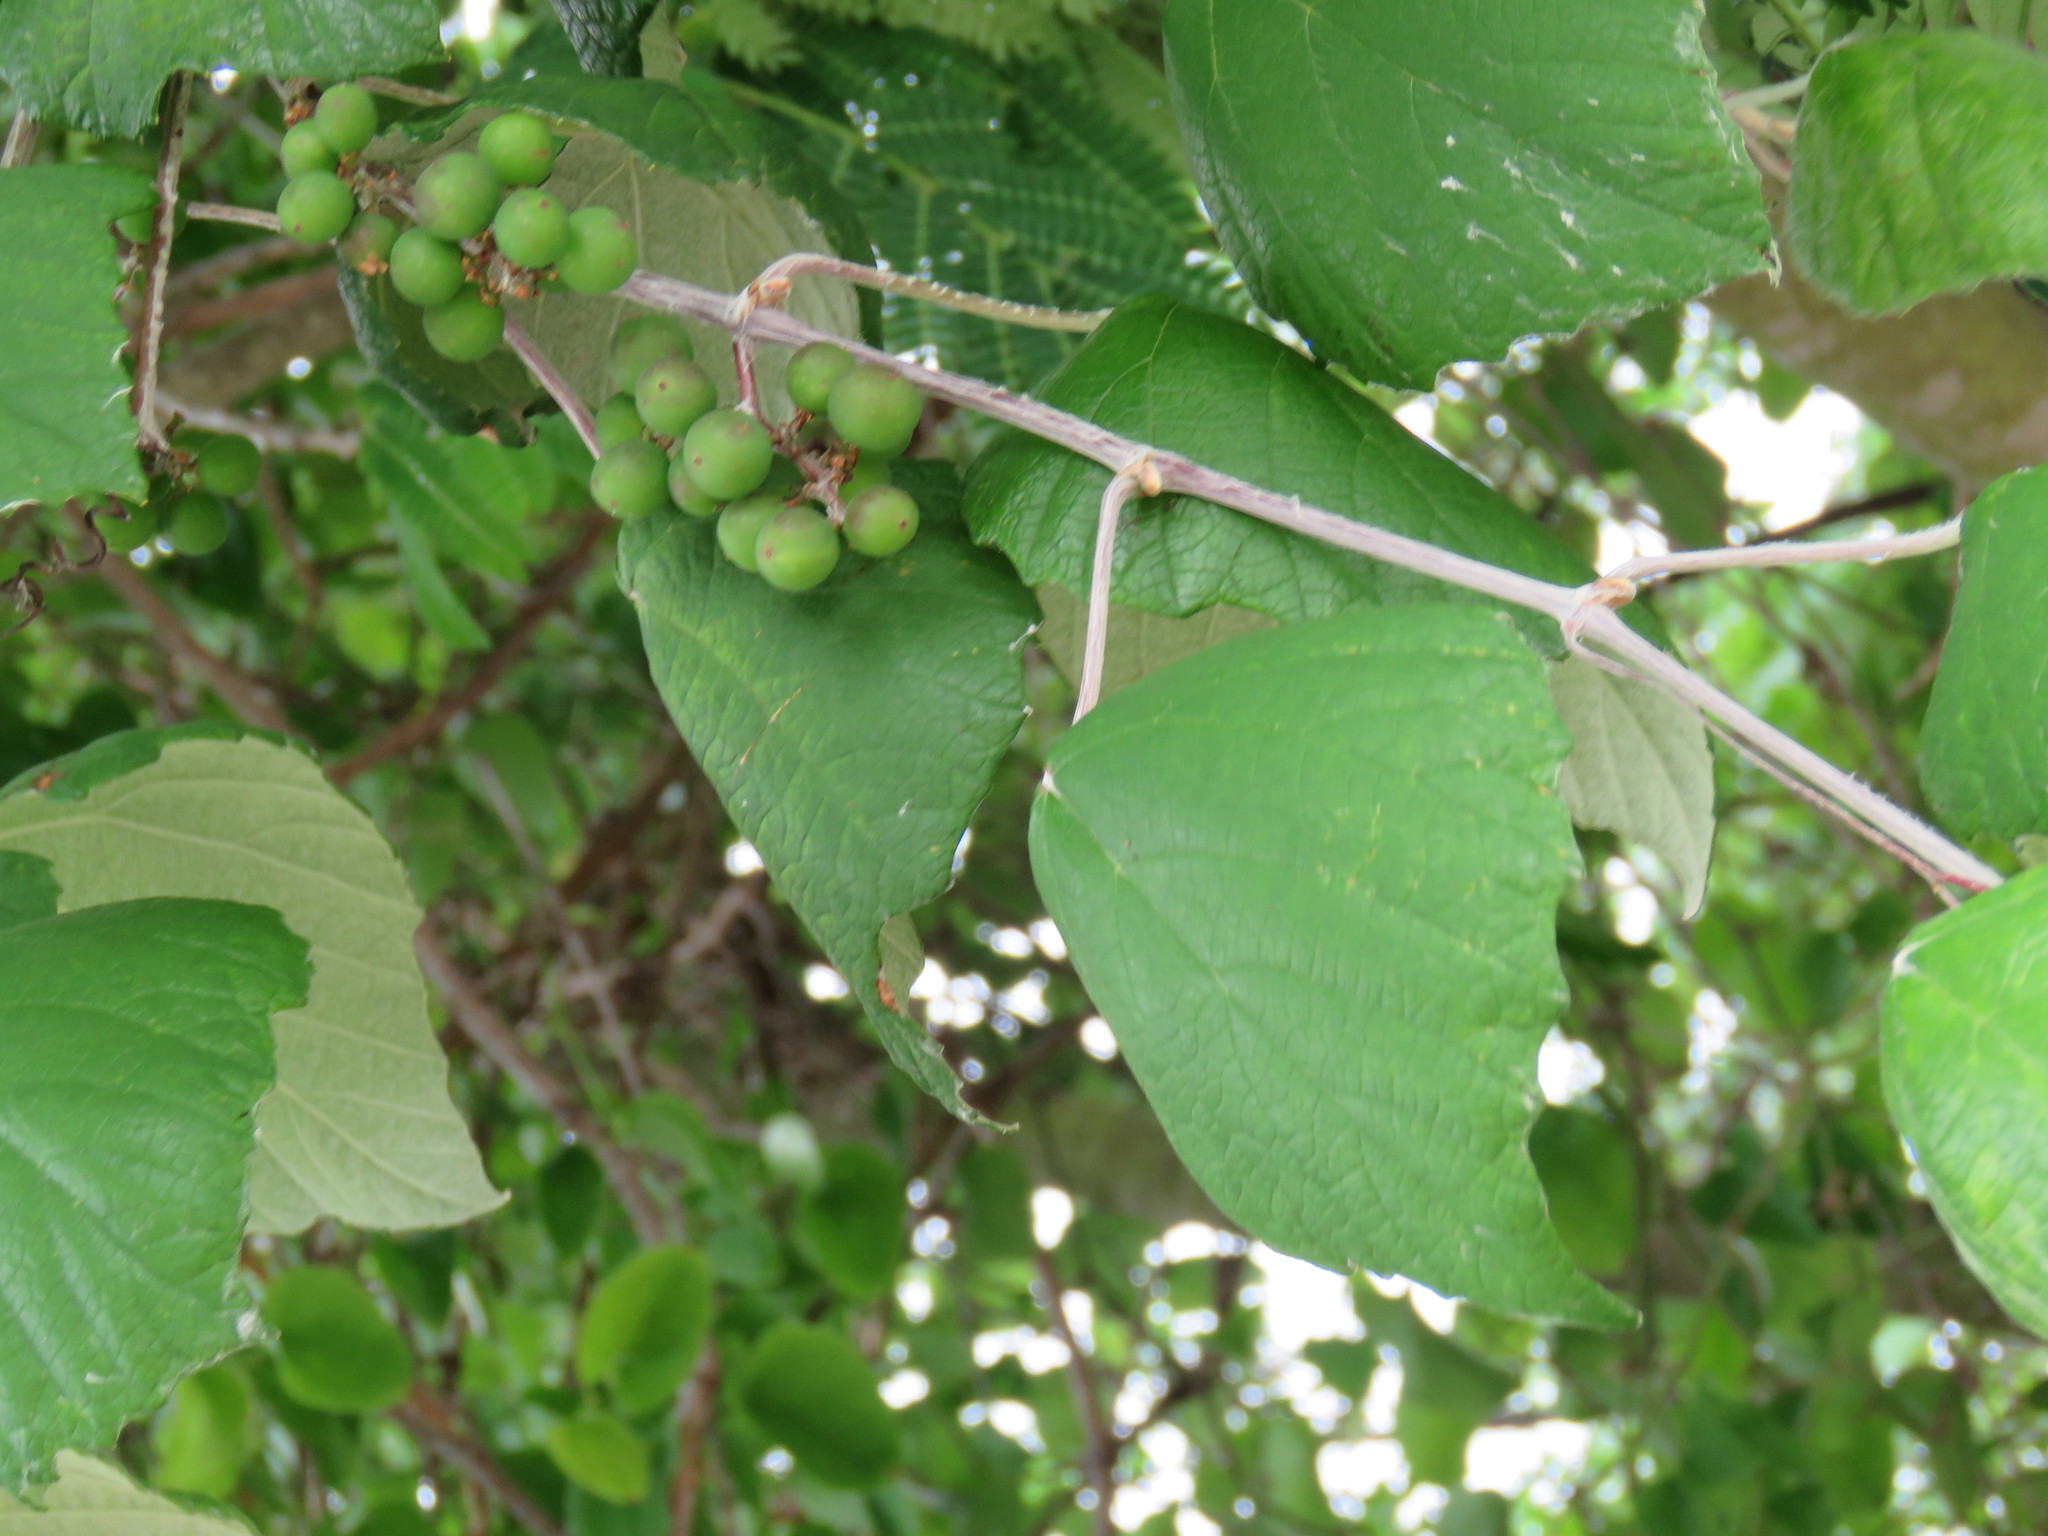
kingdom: Plantae
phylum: Tracheophyta
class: Magnoliopsida
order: Vitales
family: Vitaceae
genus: Vitis
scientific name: Vitis mustangensis
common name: Mustang grape
